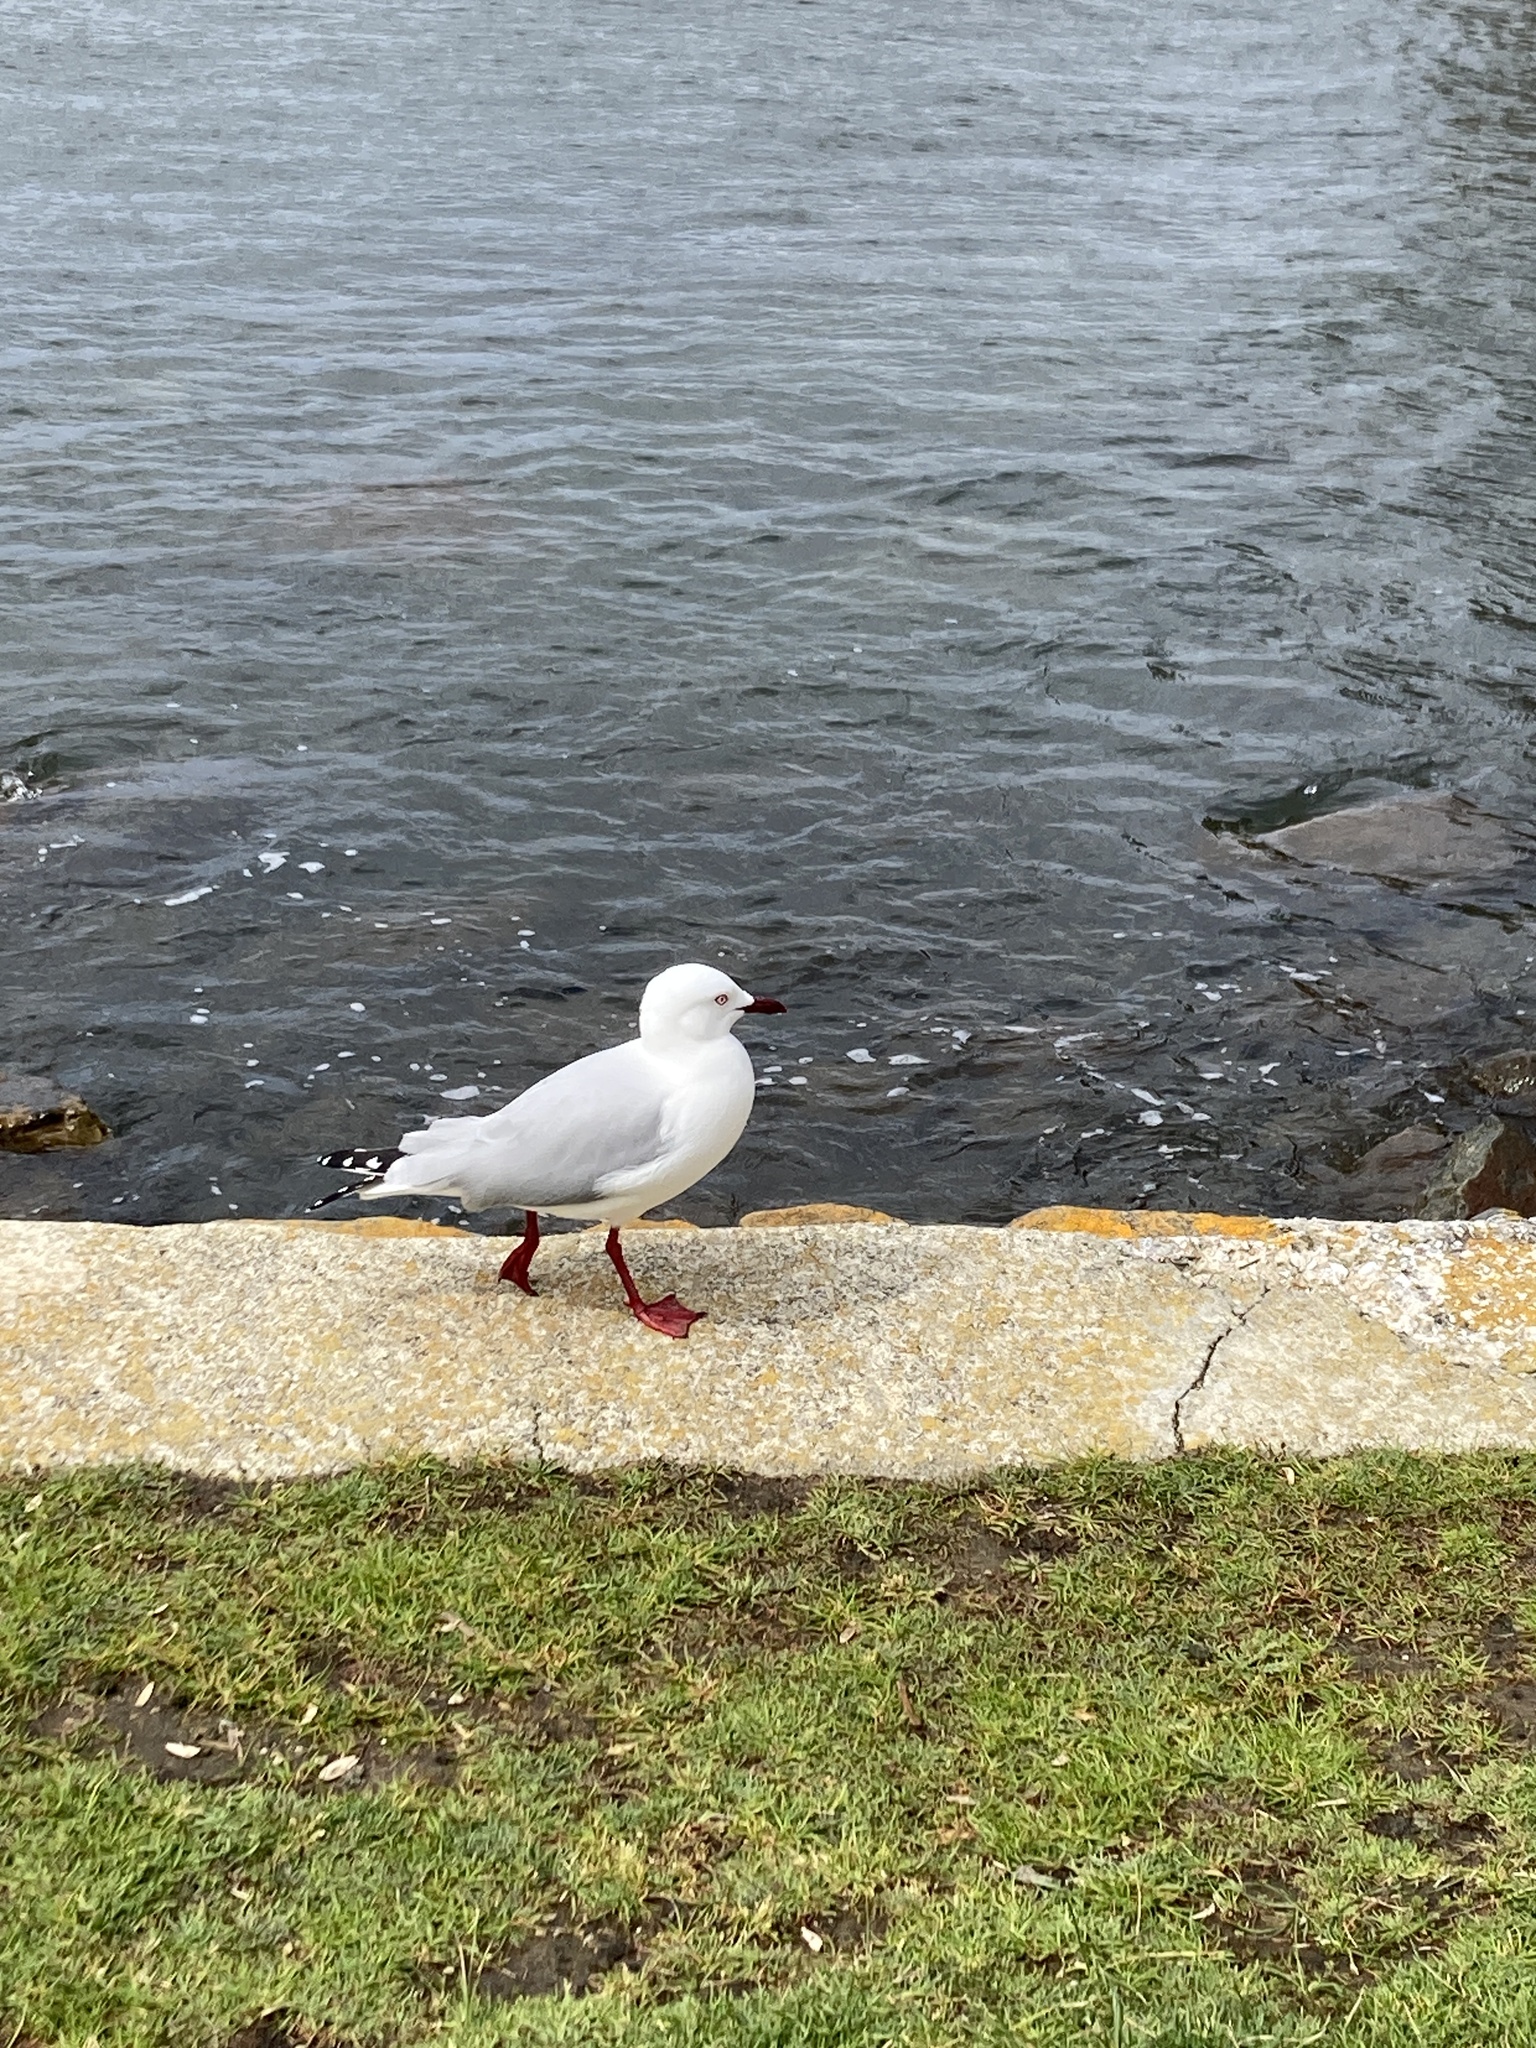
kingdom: Animalia
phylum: Chordata
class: Aves
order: Charadriiformes
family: Laridae
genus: Chroicocephalus
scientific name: Chroicocephalus novaehollandiae
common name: Silver gull
